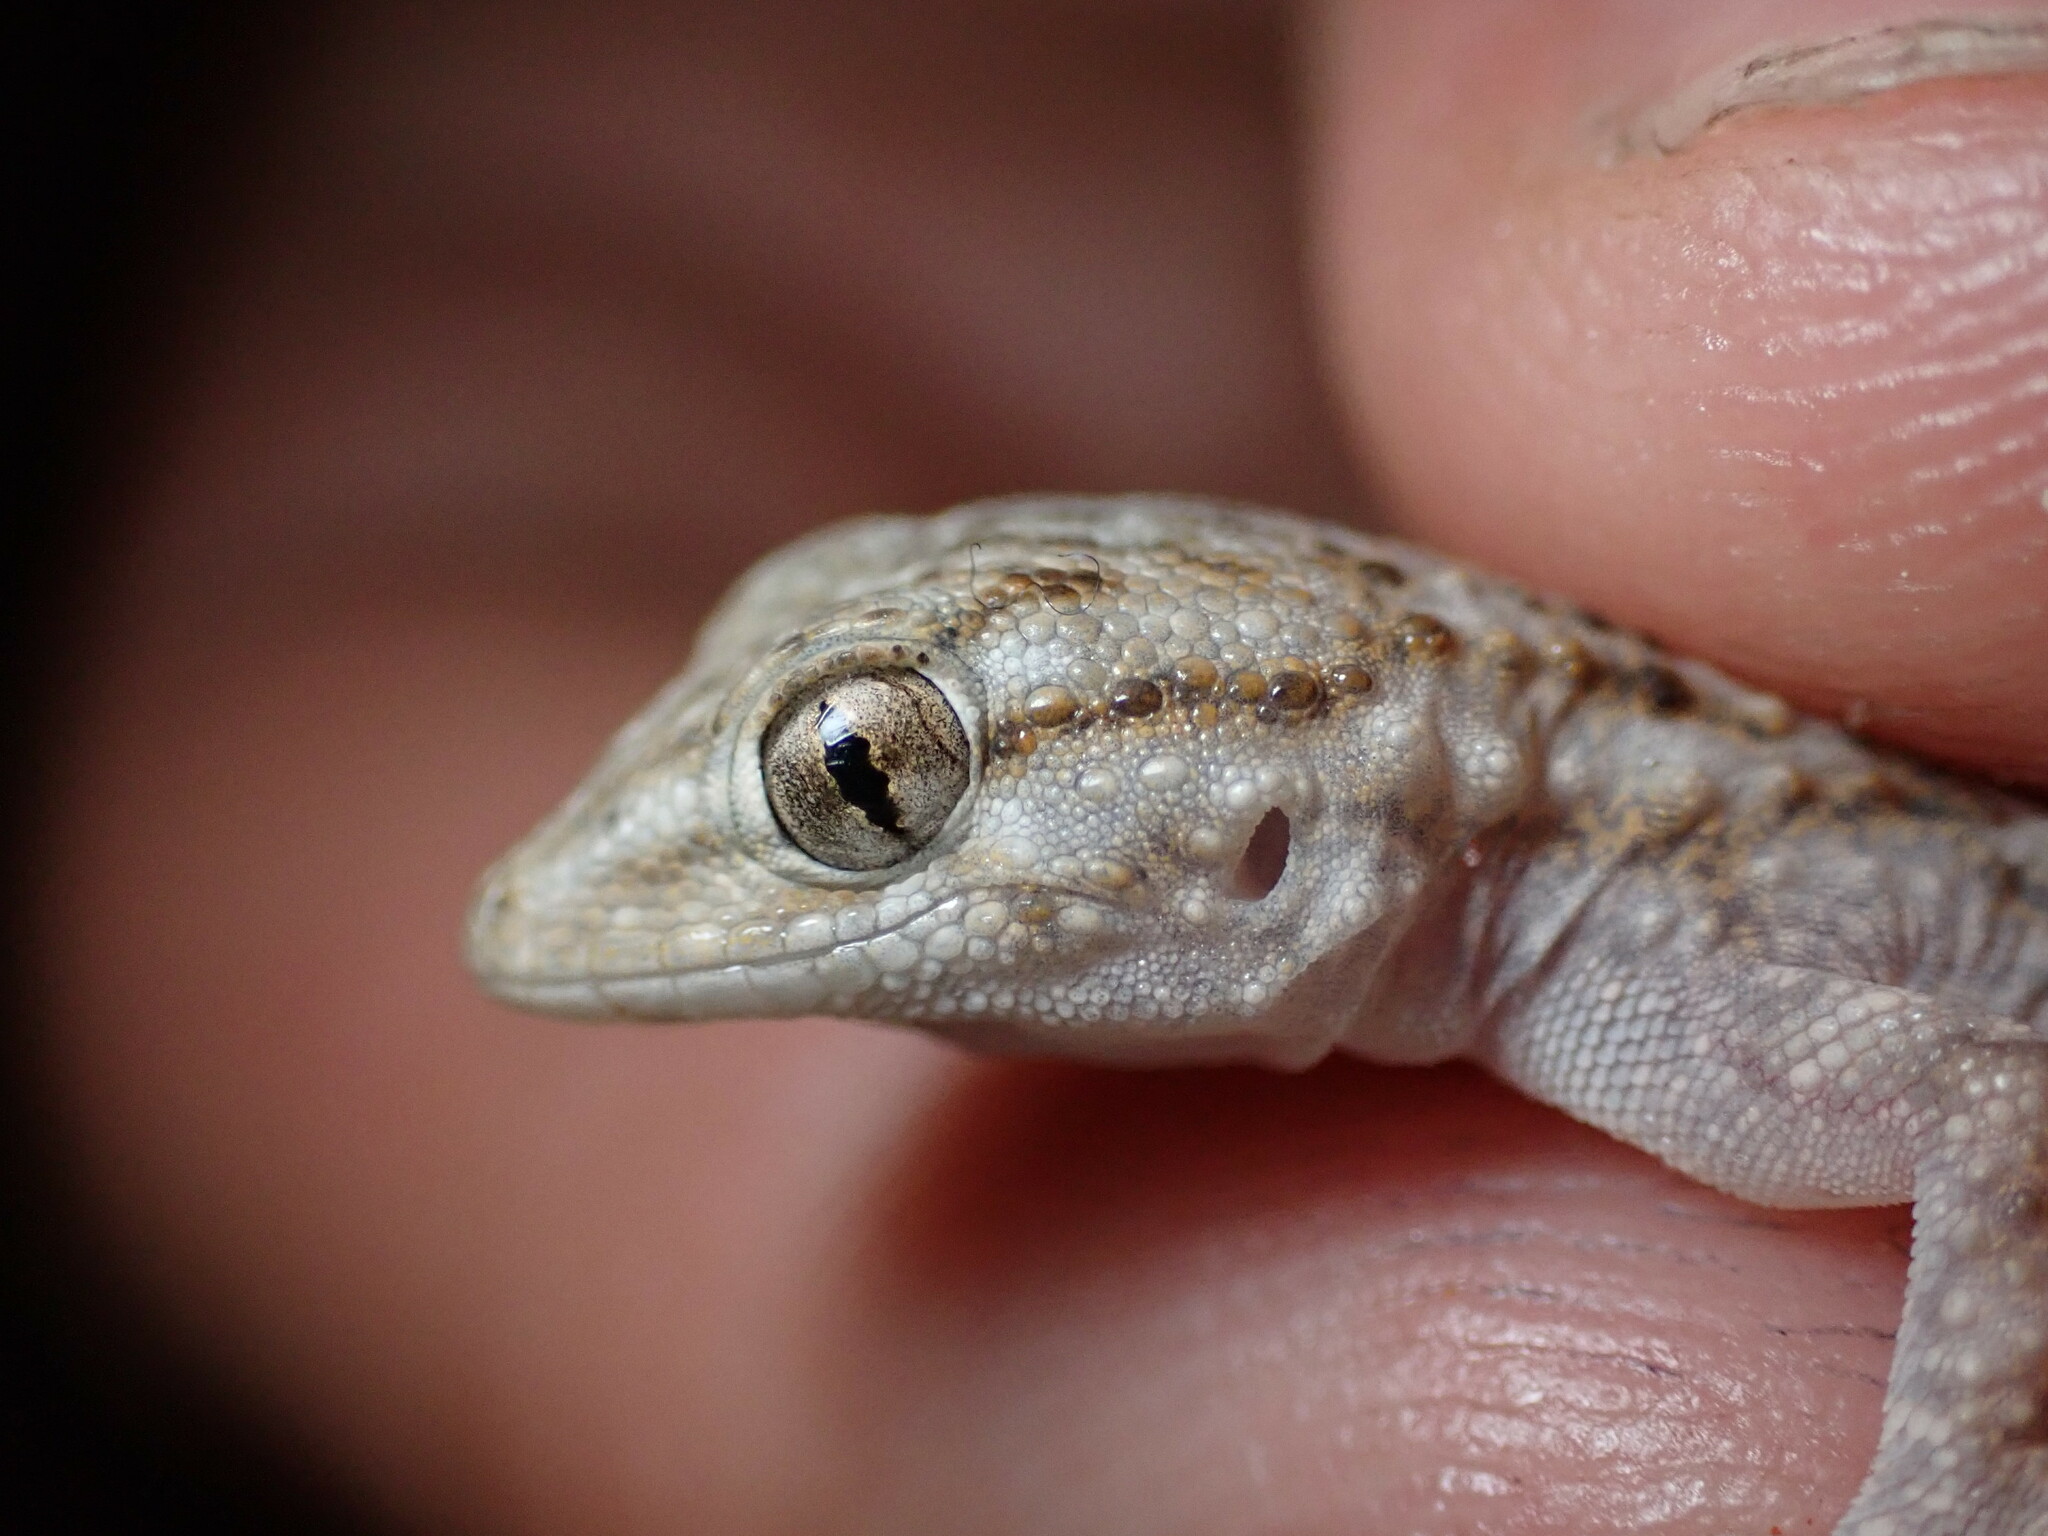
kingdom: Animalia
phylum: Chordata
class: Squamata
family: Phyllodactylidae
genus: Tarentola
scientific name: Tarentola mauritanica
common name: Moorish gecko
